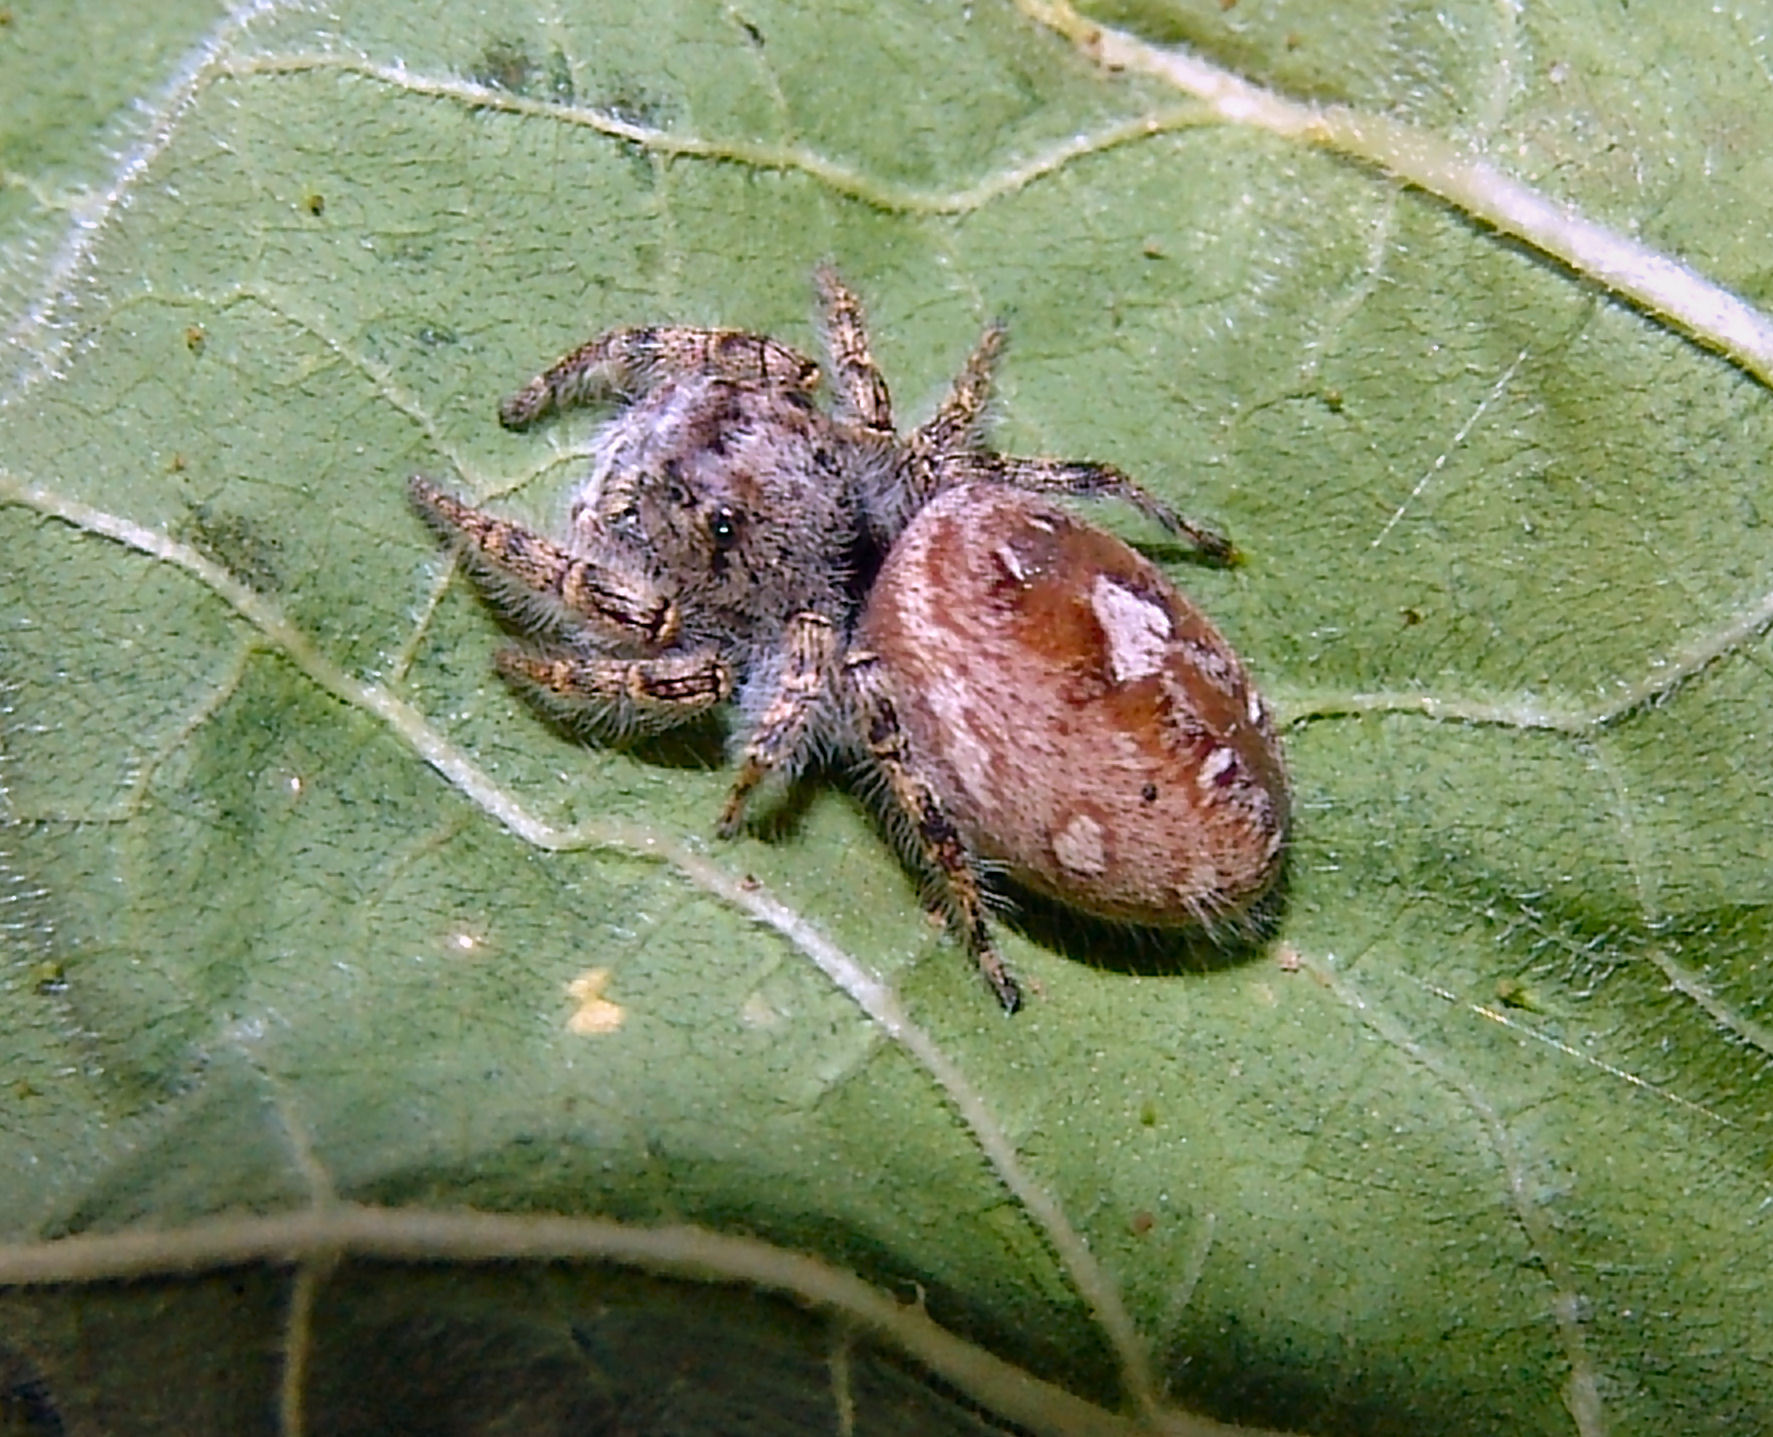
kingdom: Animalia
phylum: Arthropoda
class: Arachnida
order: Araneae
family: Salticidae
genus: Phidippus
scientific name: Phidippus putnami
